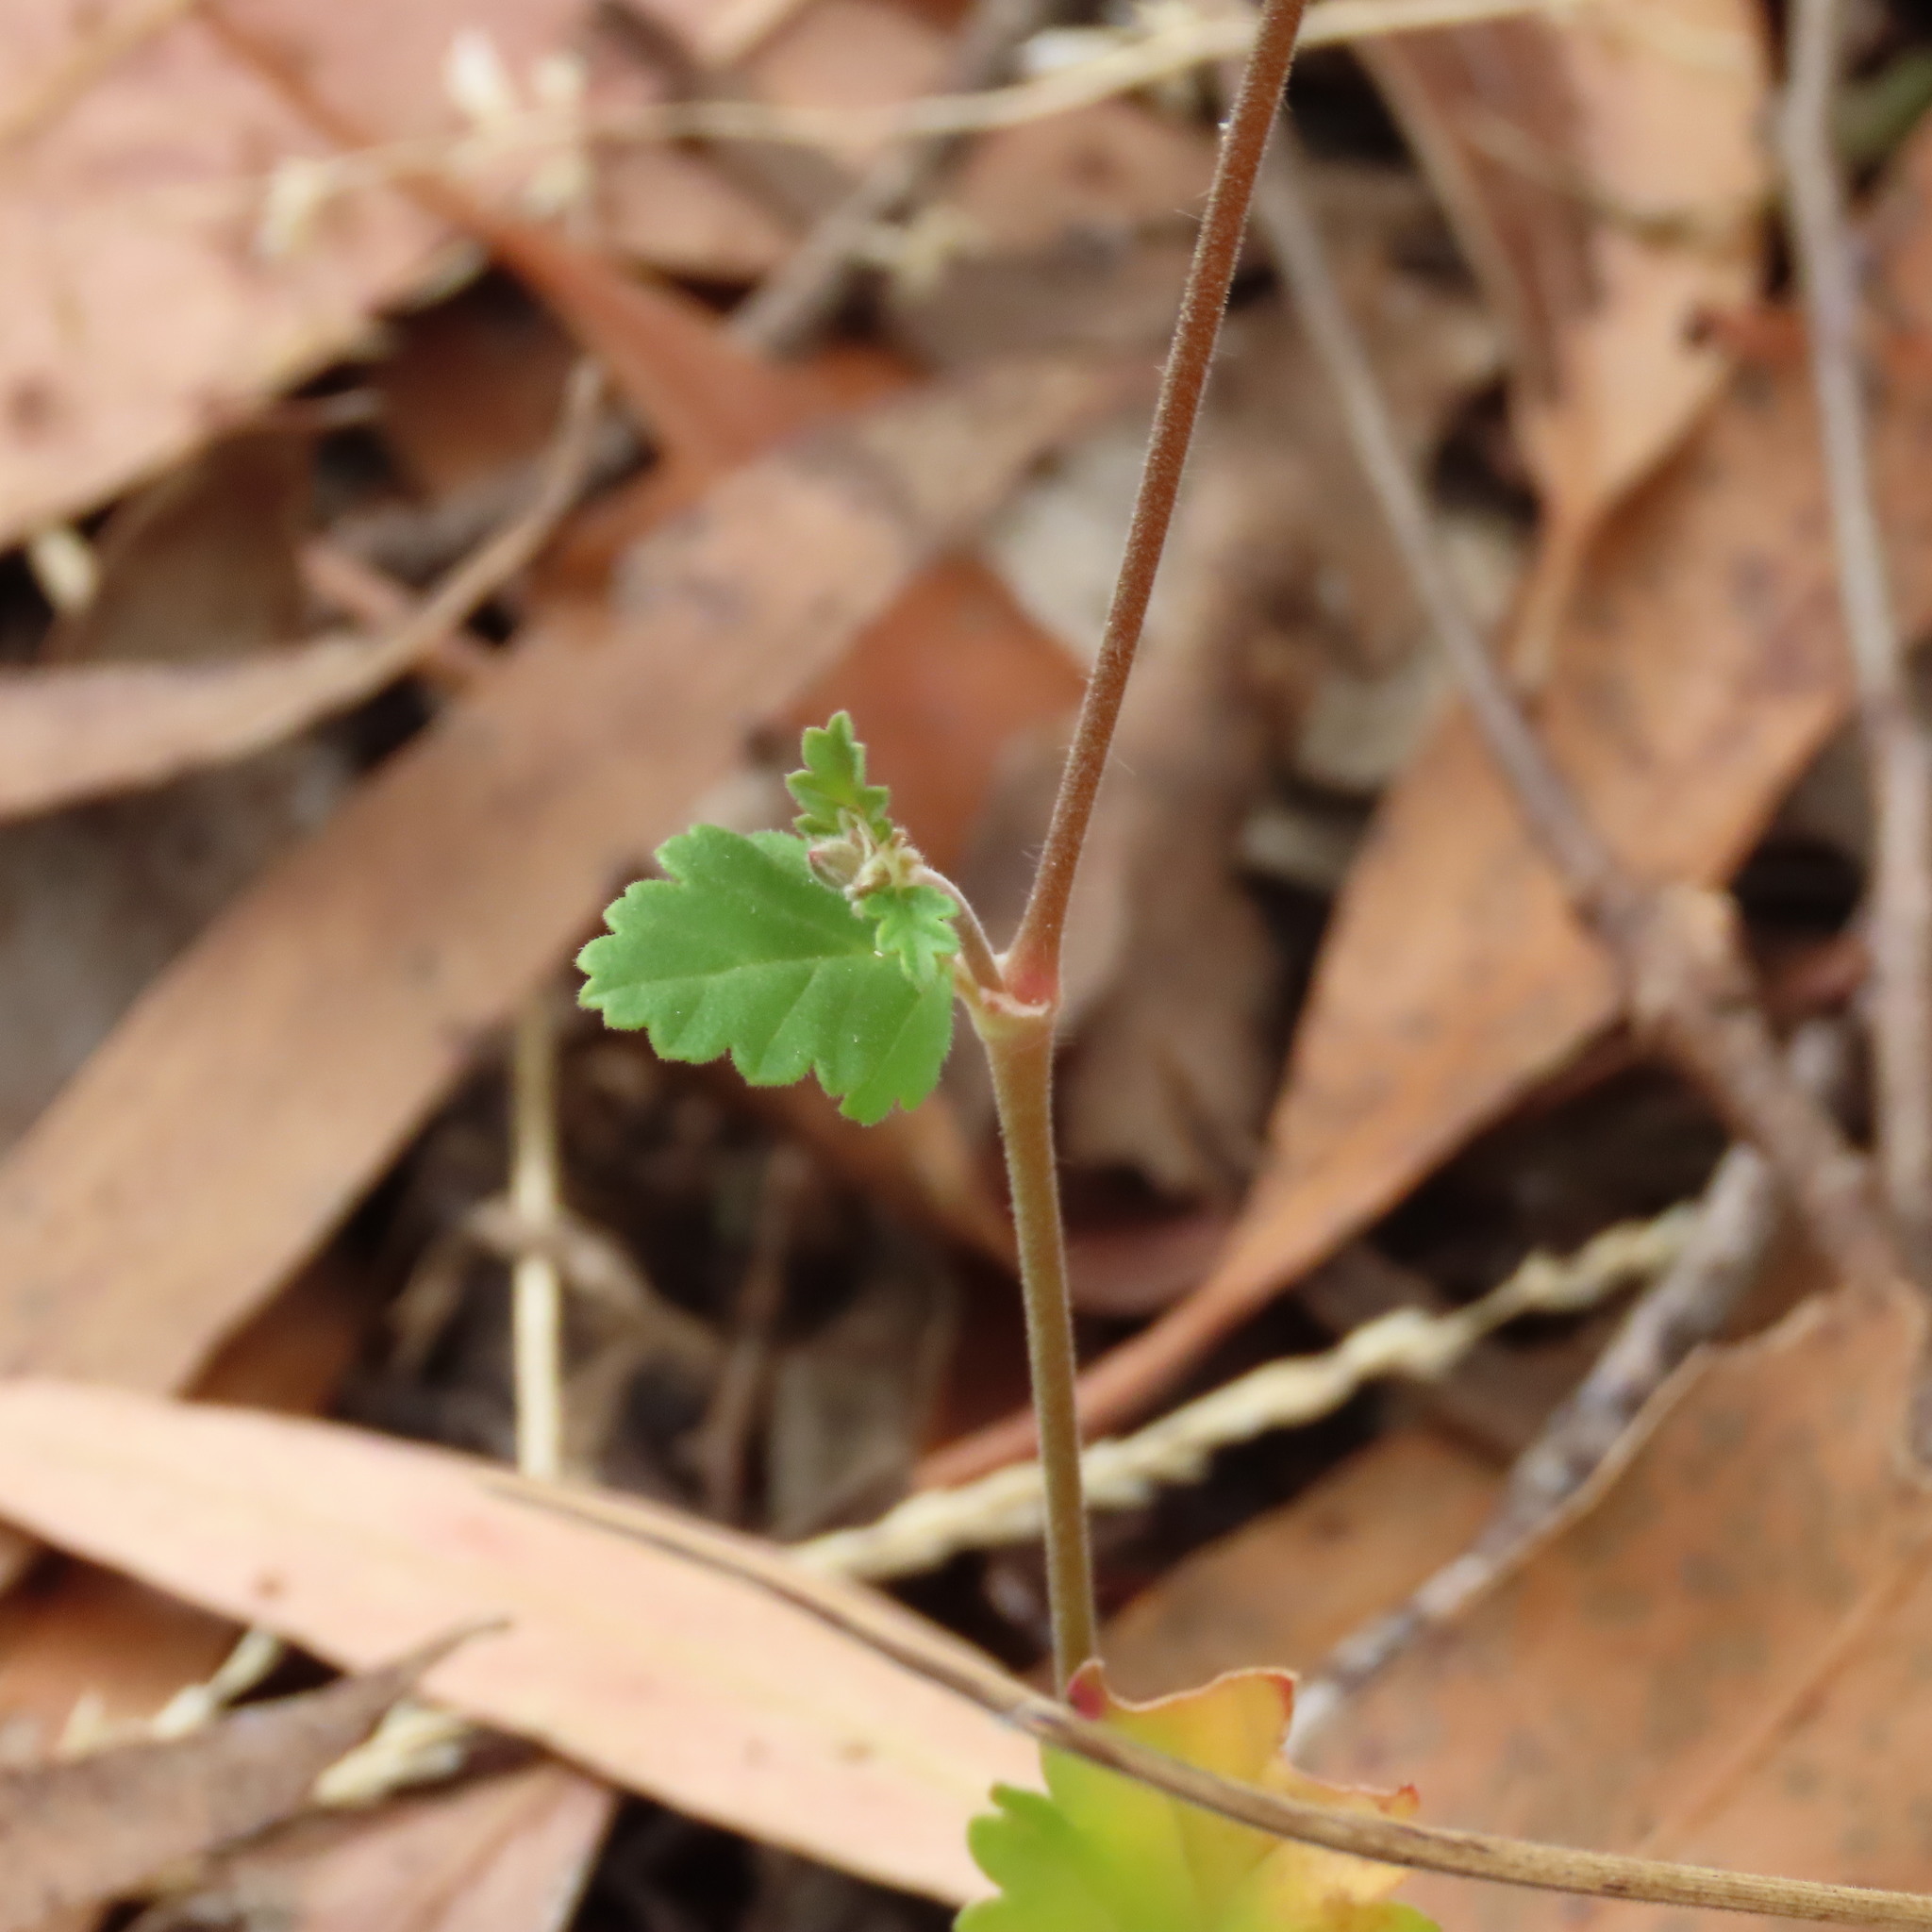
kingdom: Plantae
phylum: Tracheophyta
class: Magnoliopsida
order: Geraniales
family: Geraniaceae
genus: Pelargonium
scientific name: Pelargonium rodneyanum
